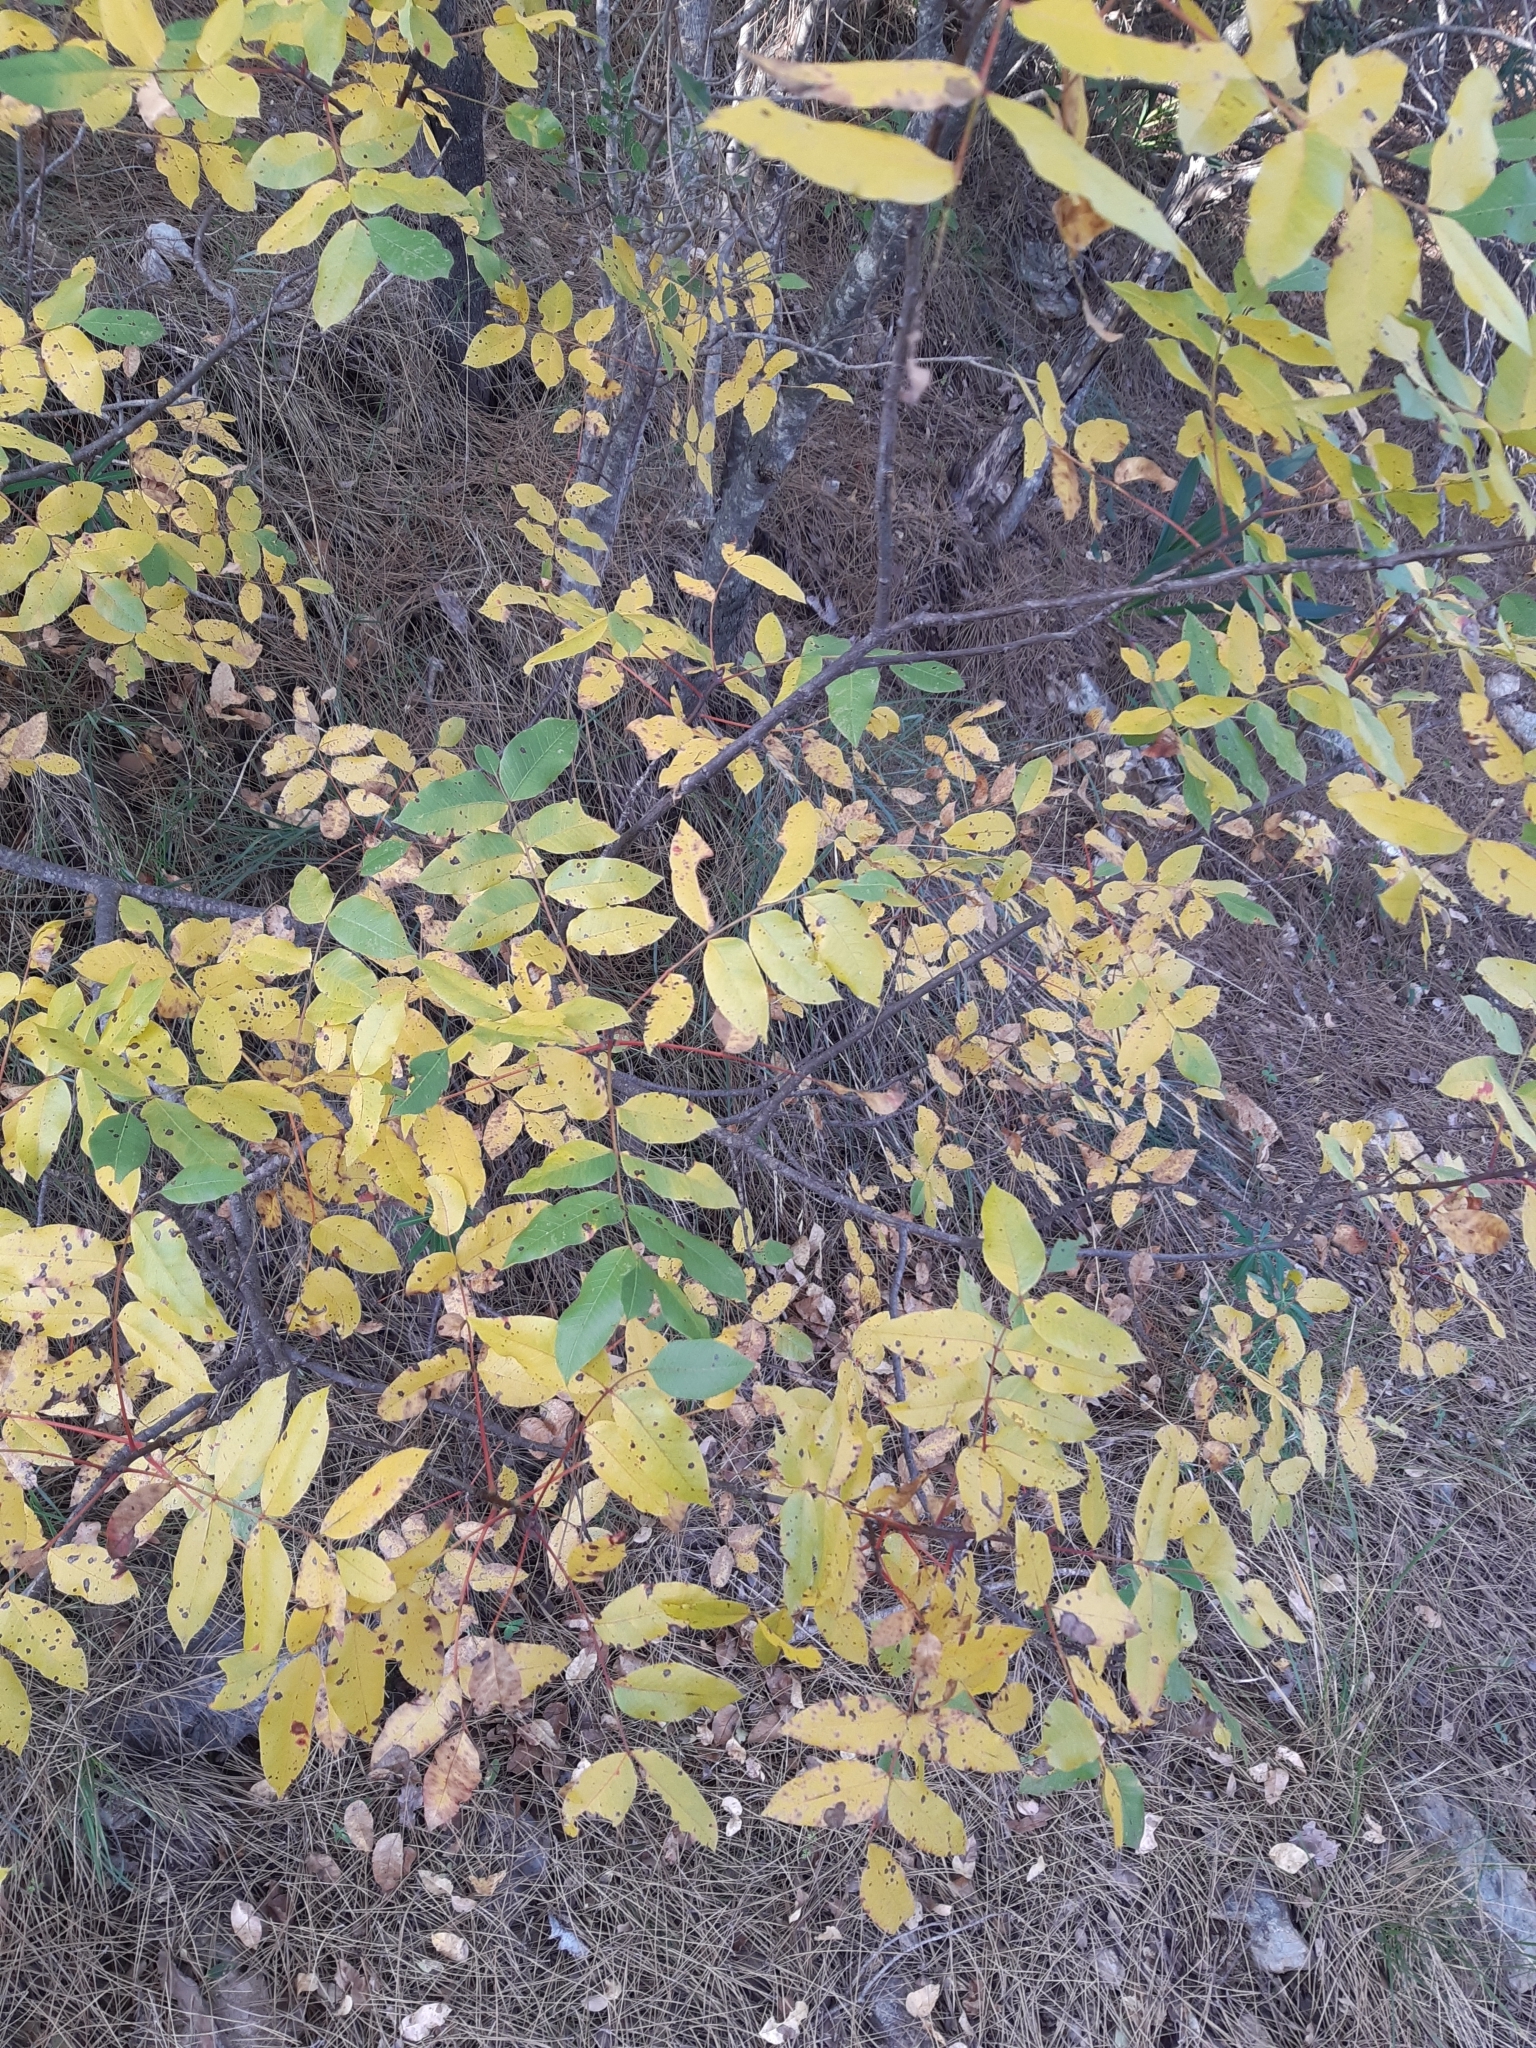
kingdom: Plantae
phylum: Tracheophyta
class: Magnoliopsida
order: Sapindales
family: Anacardiaceae
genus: Pistacia
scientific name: Pistacia terebinthus
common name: Terebinth
